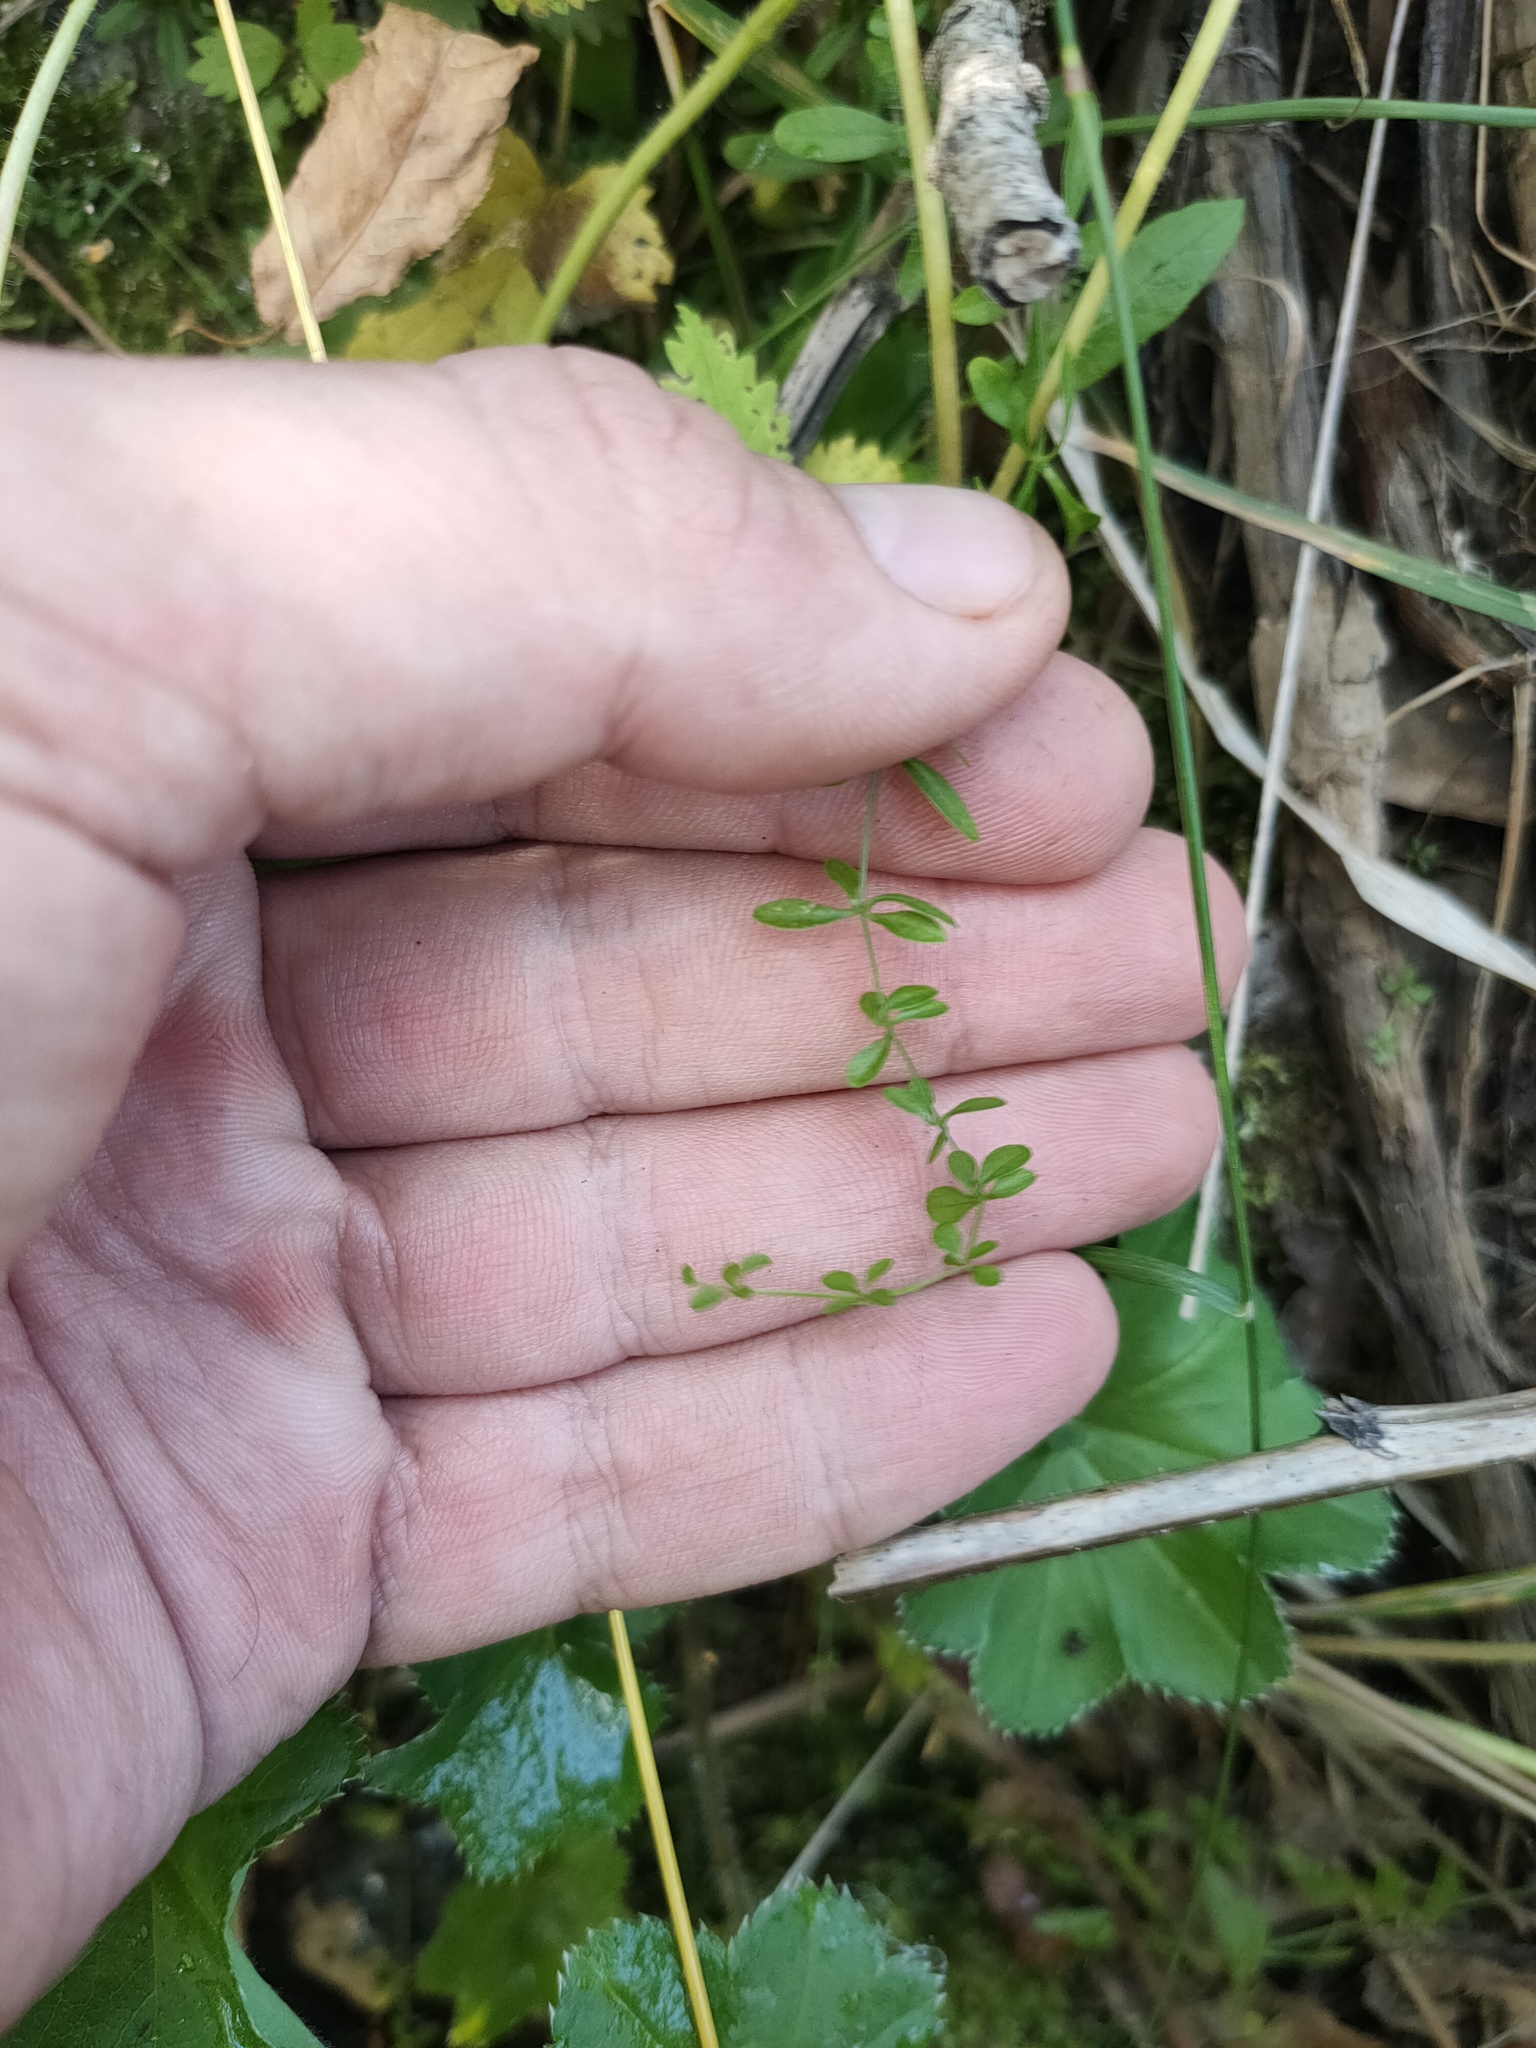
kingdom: Plantae
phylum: Tracheophyta
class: Magnoliopsida
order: Gentianales
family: Rubiaceae
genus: Galium
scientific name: Galium palustre
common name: Common marsh-bedstraw
